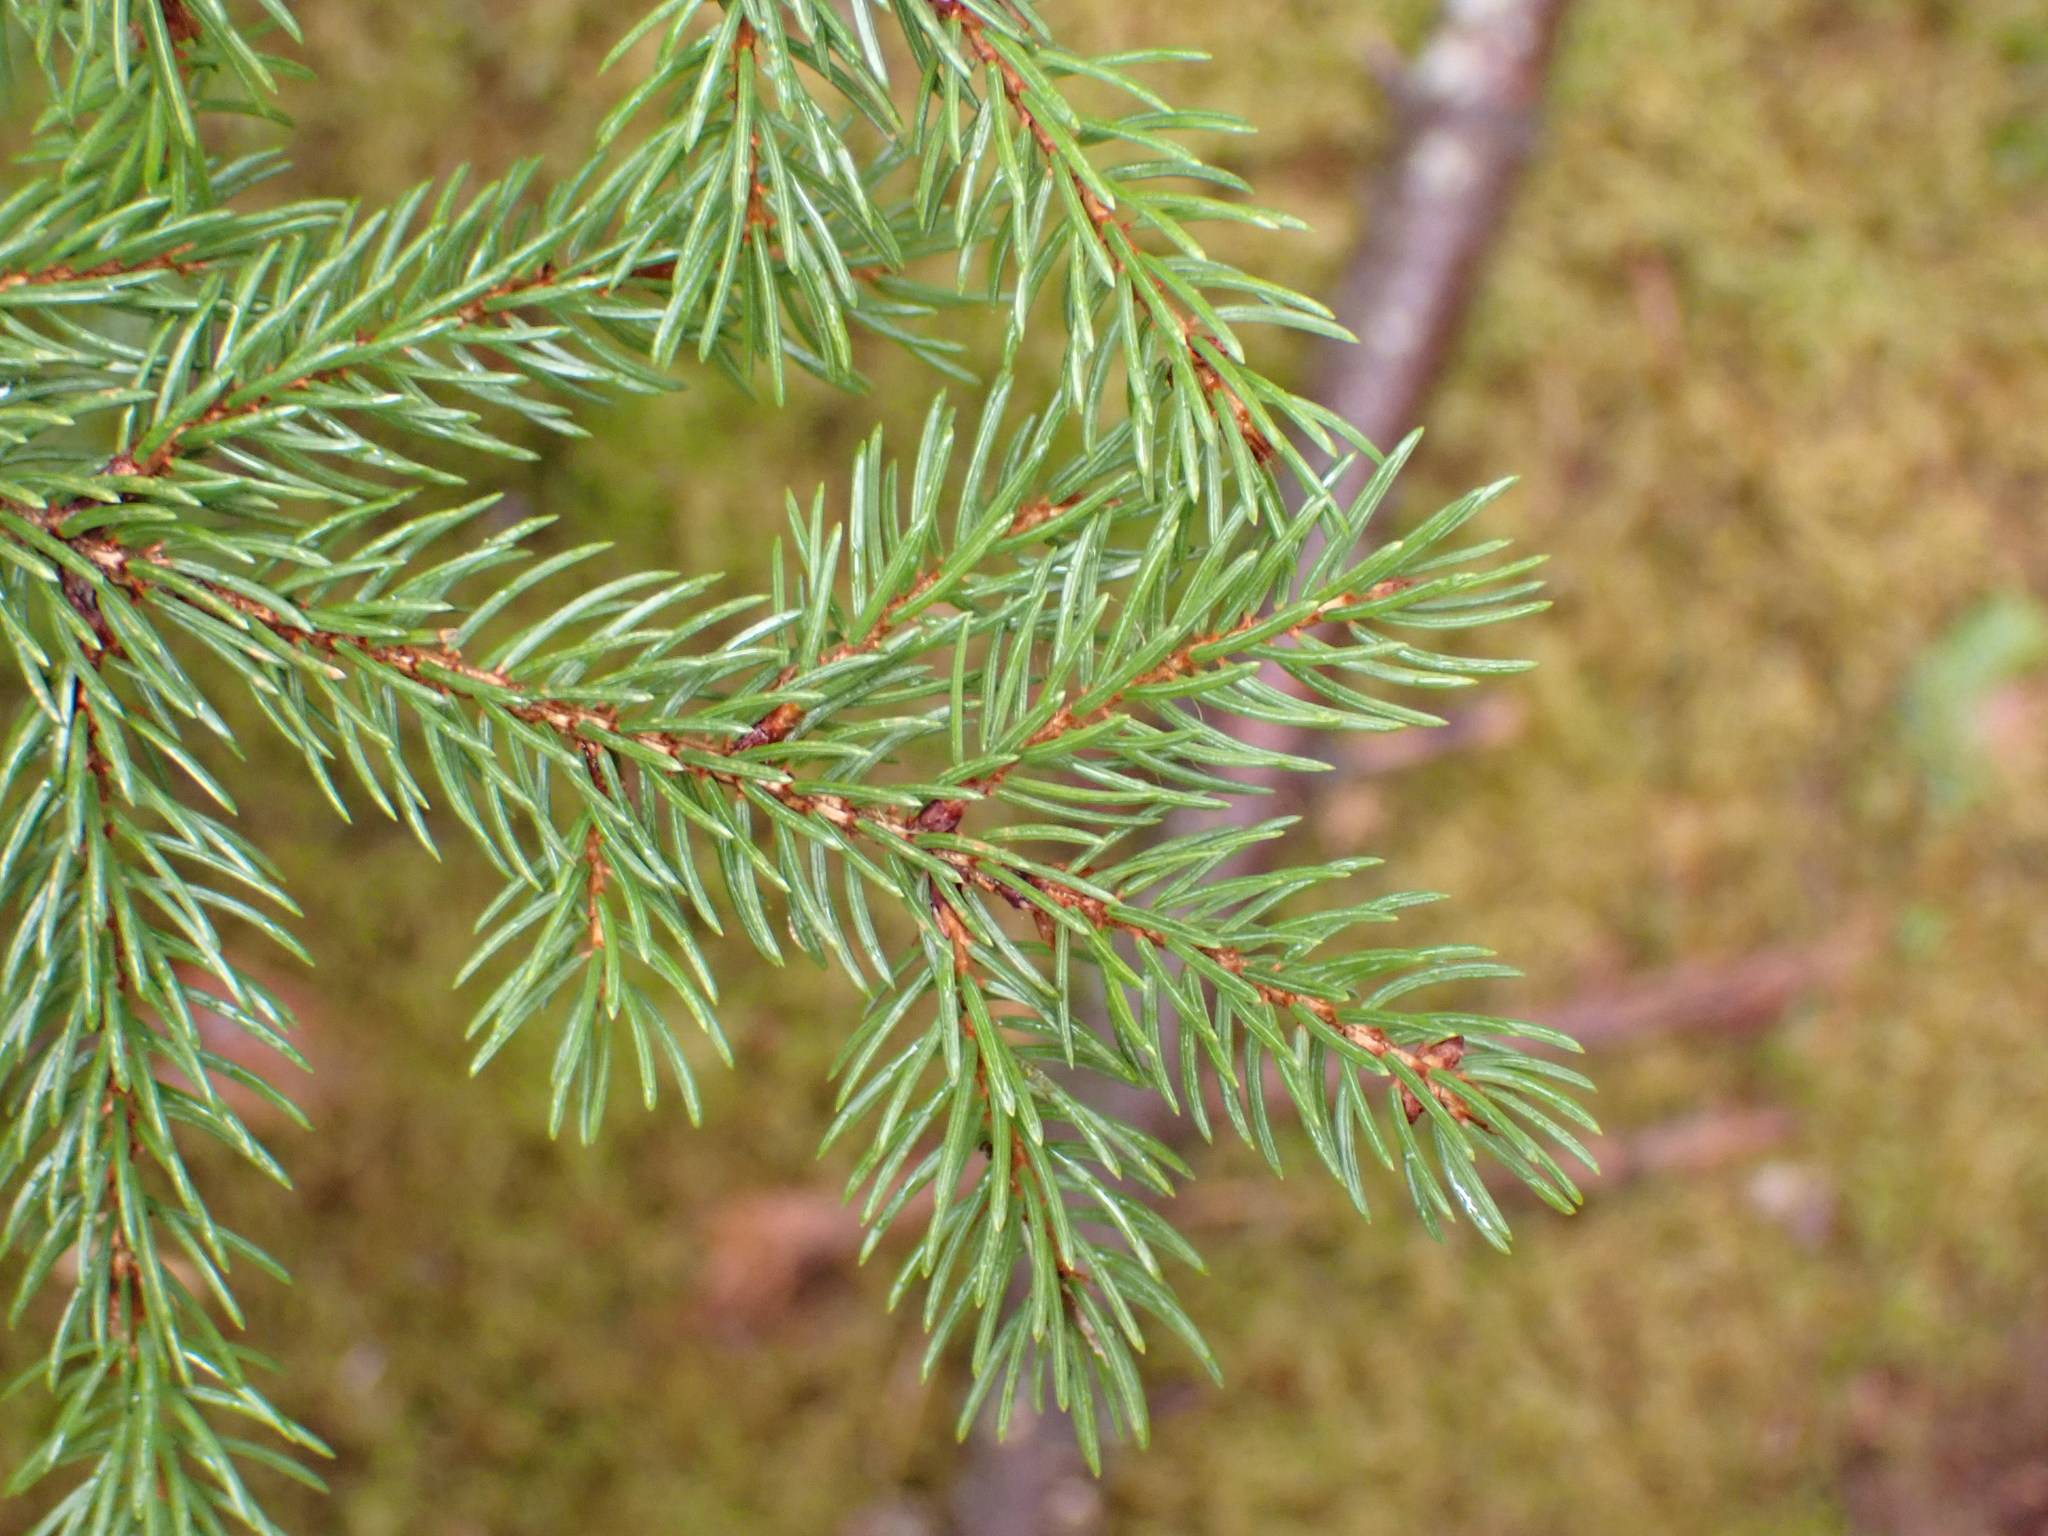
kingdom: Plantae
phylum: Tracheophyta
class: Pinopsida
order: Pinales
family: Pinaceae
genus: Picea
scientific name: Picea rubens
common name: Red spruce
